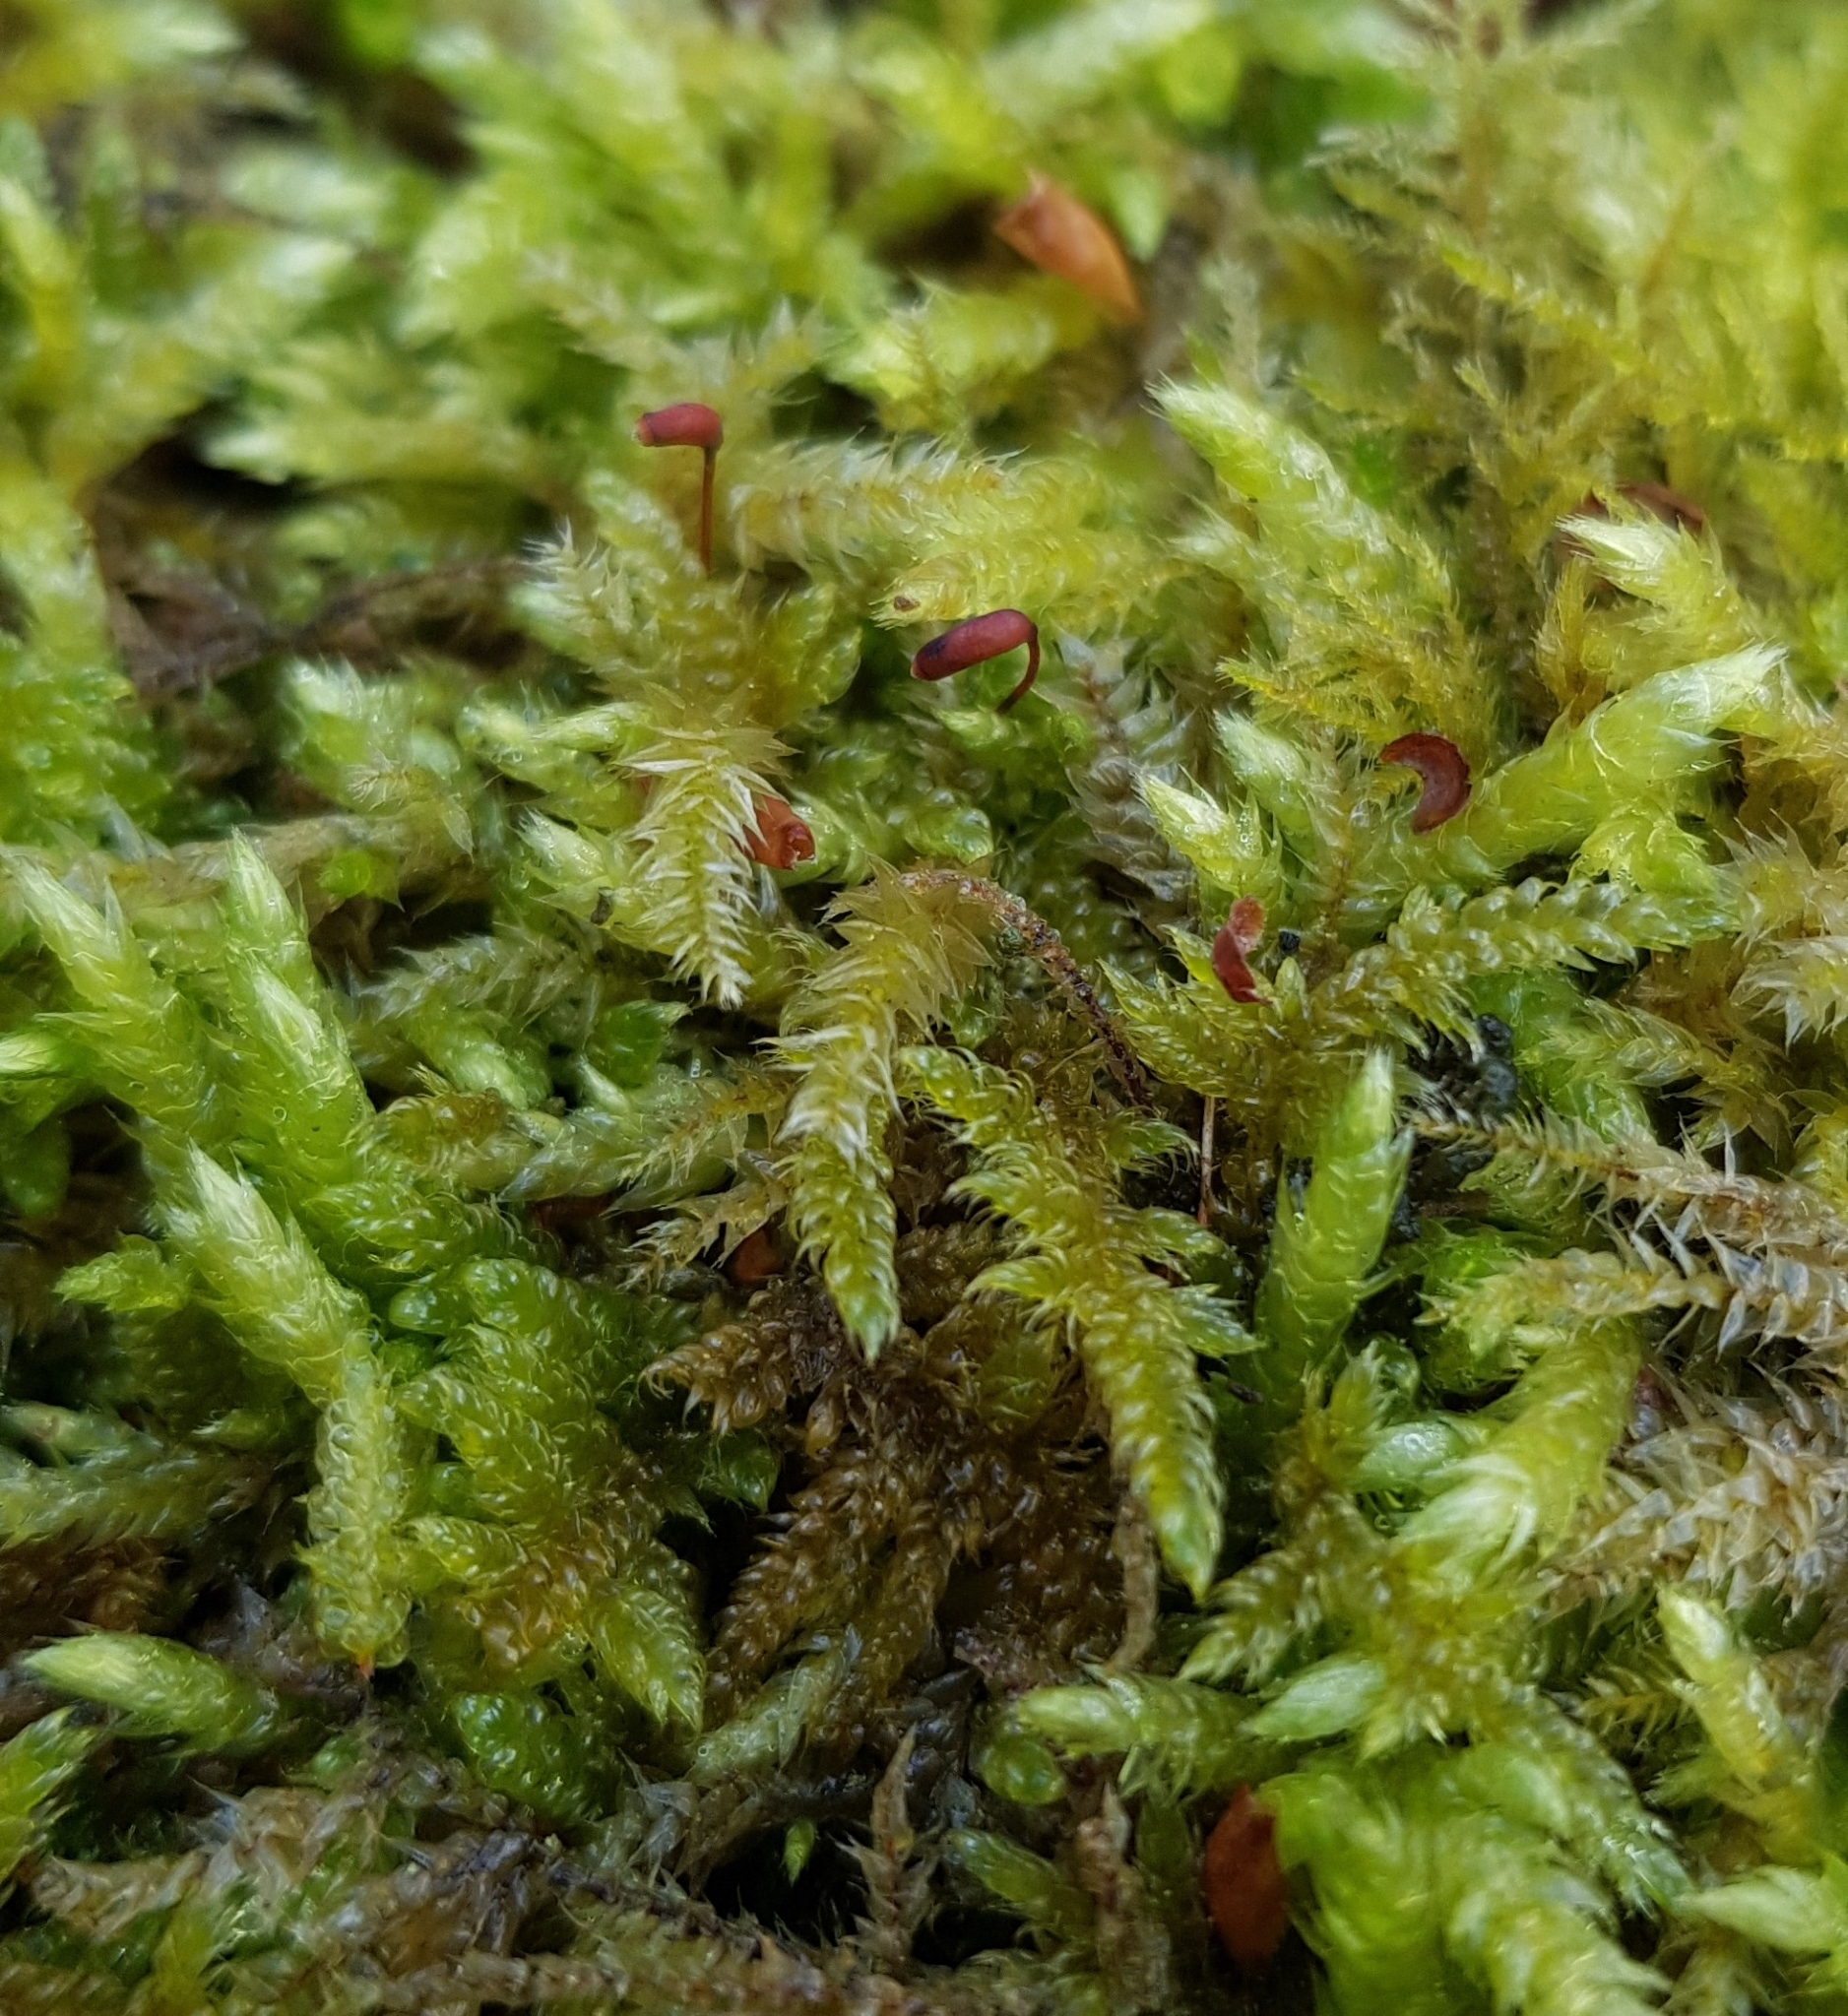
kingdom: Plantae
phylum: Bryophyta
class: Bryopsida
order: Hypnales
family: Brachytheciaceae
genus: Brachythecium
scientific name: Brachythecium rutabulum
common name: Rough-stalked feather-moss
